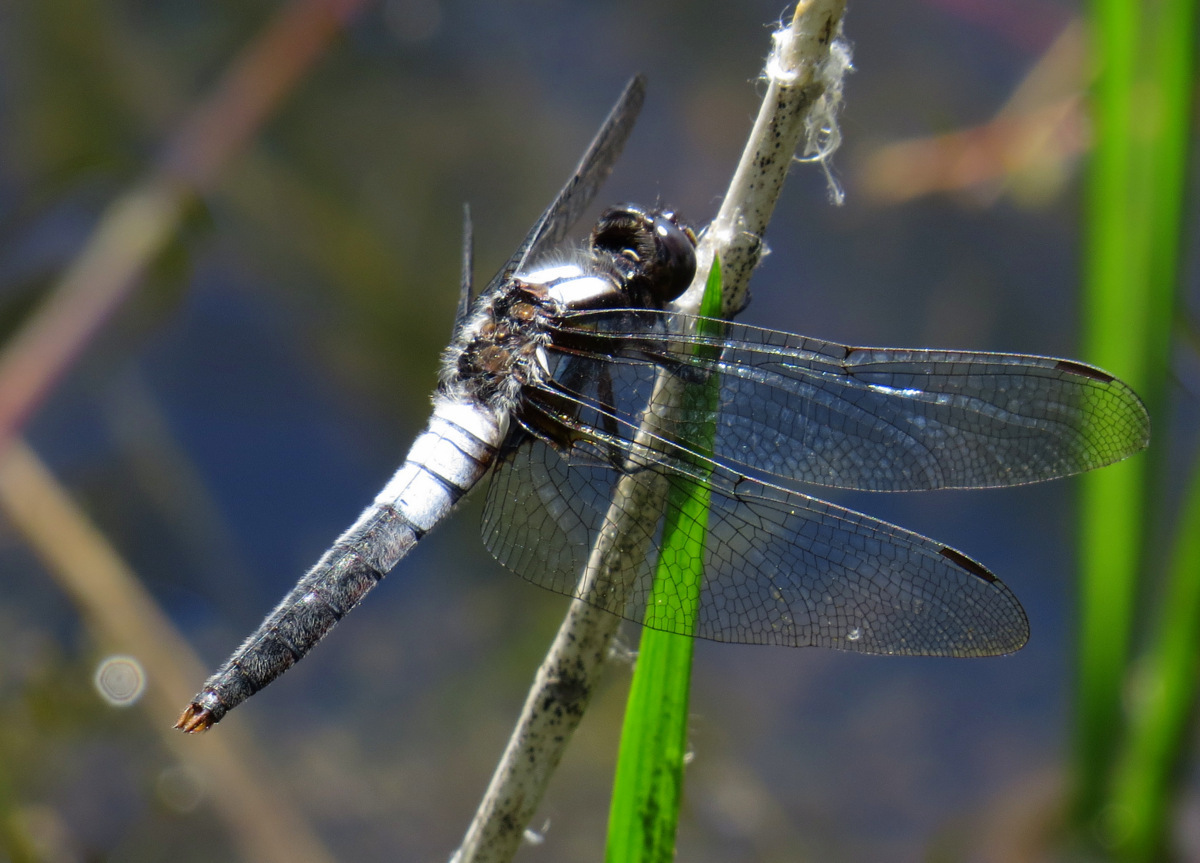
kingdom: Animalia
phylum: Arthropoda
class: Insecta
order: Odonata
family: Libellulidae
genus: Ladona
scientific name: Ladona julia
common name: Chalk-fronted corporal
